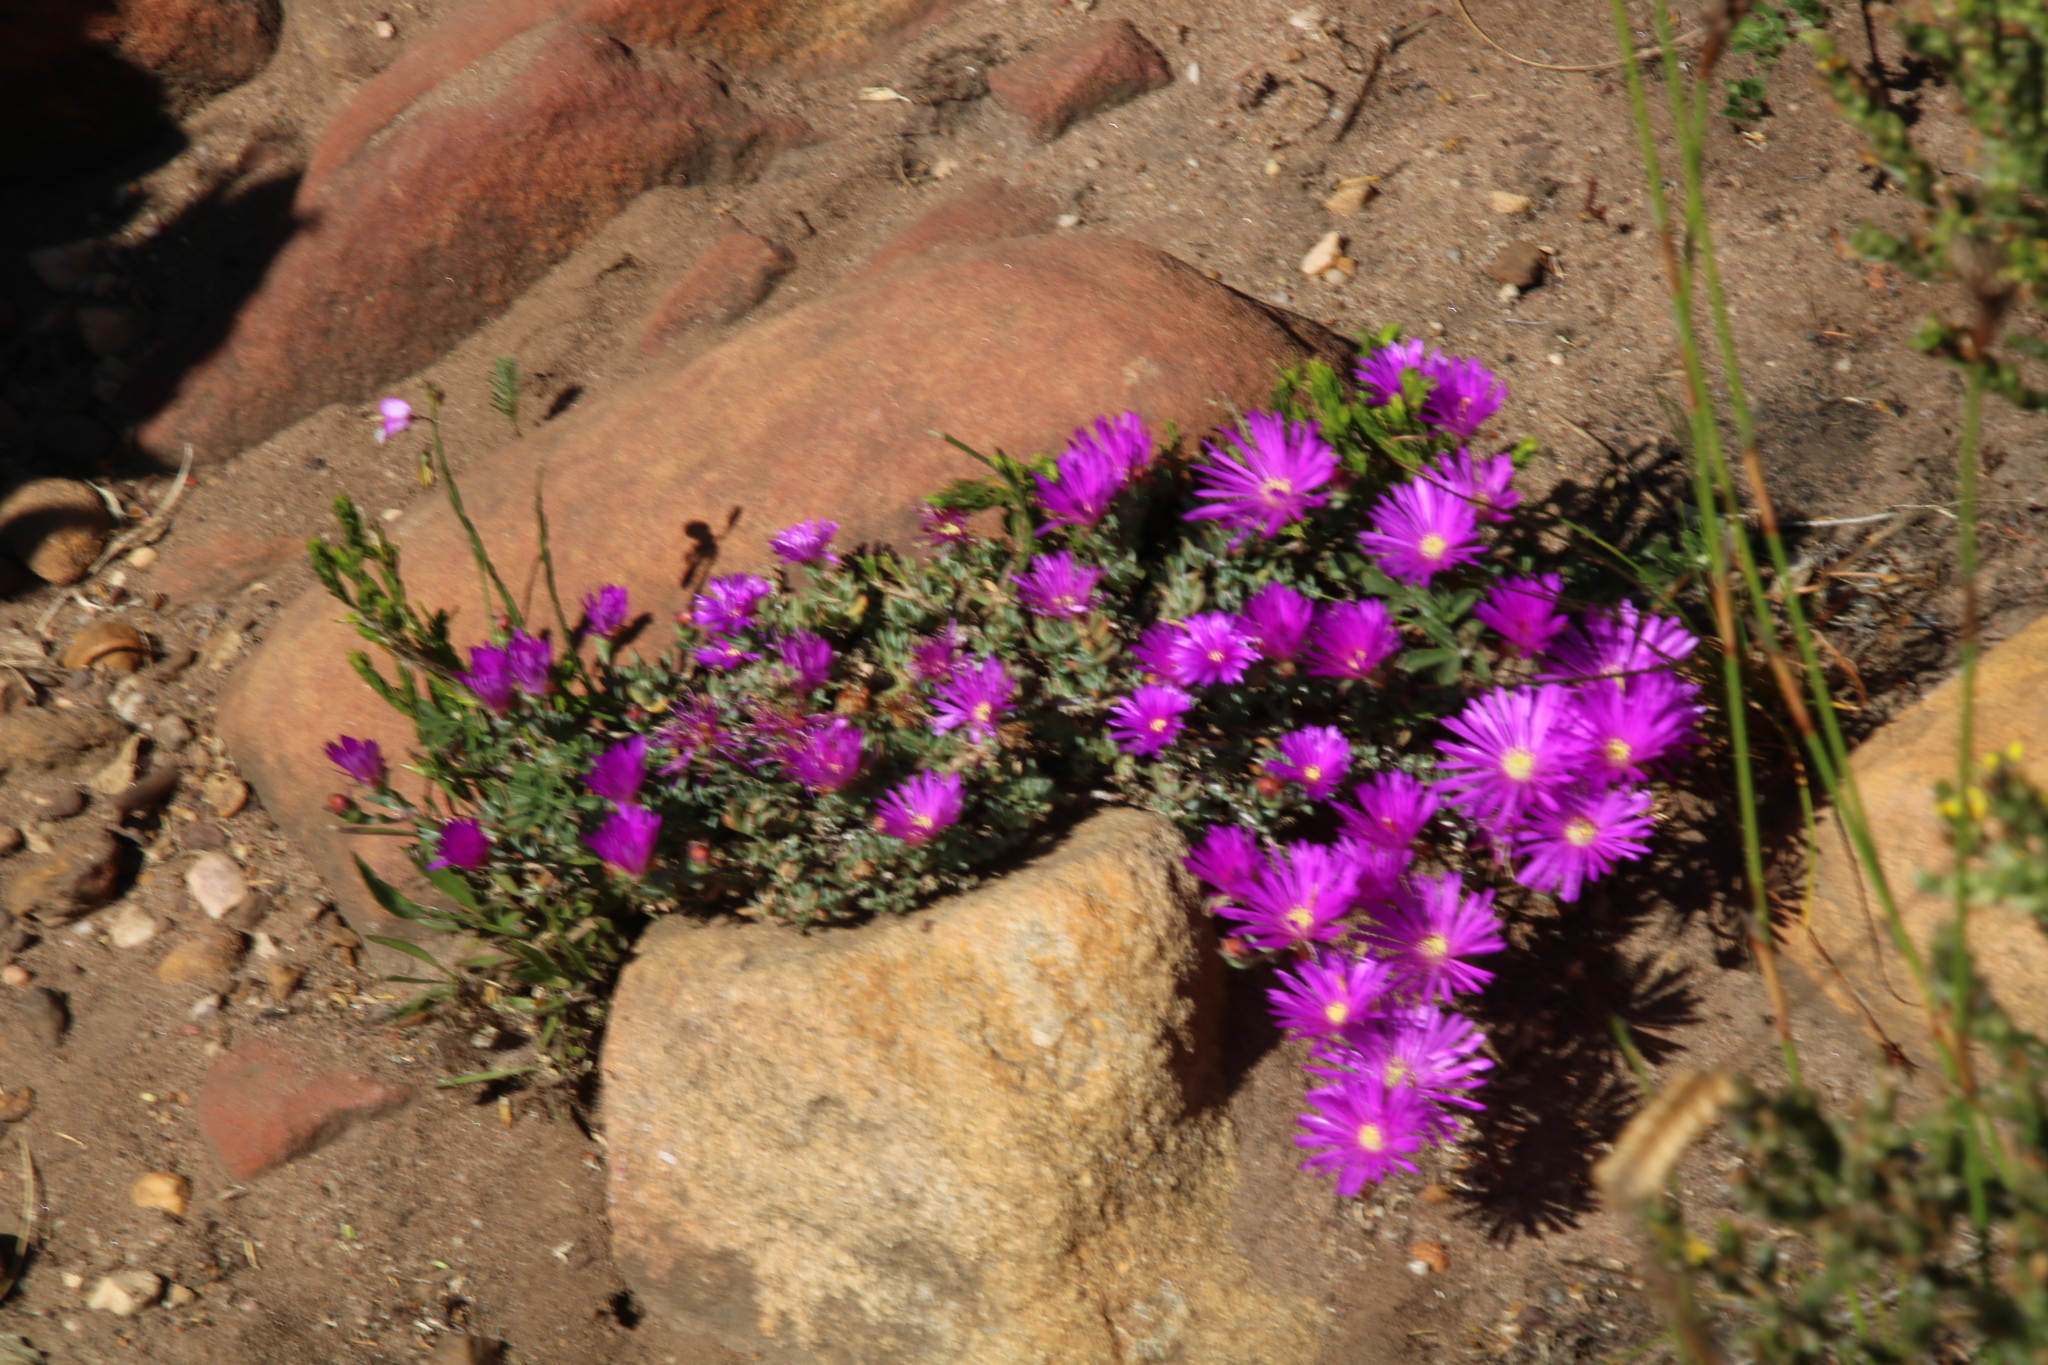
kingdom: Plantae
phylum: Tracheophyta
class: Magnoliopsida
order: Caryophyllales
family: Aizoaceae
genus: Lampranthus
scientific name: Lampranthus emarginatus
